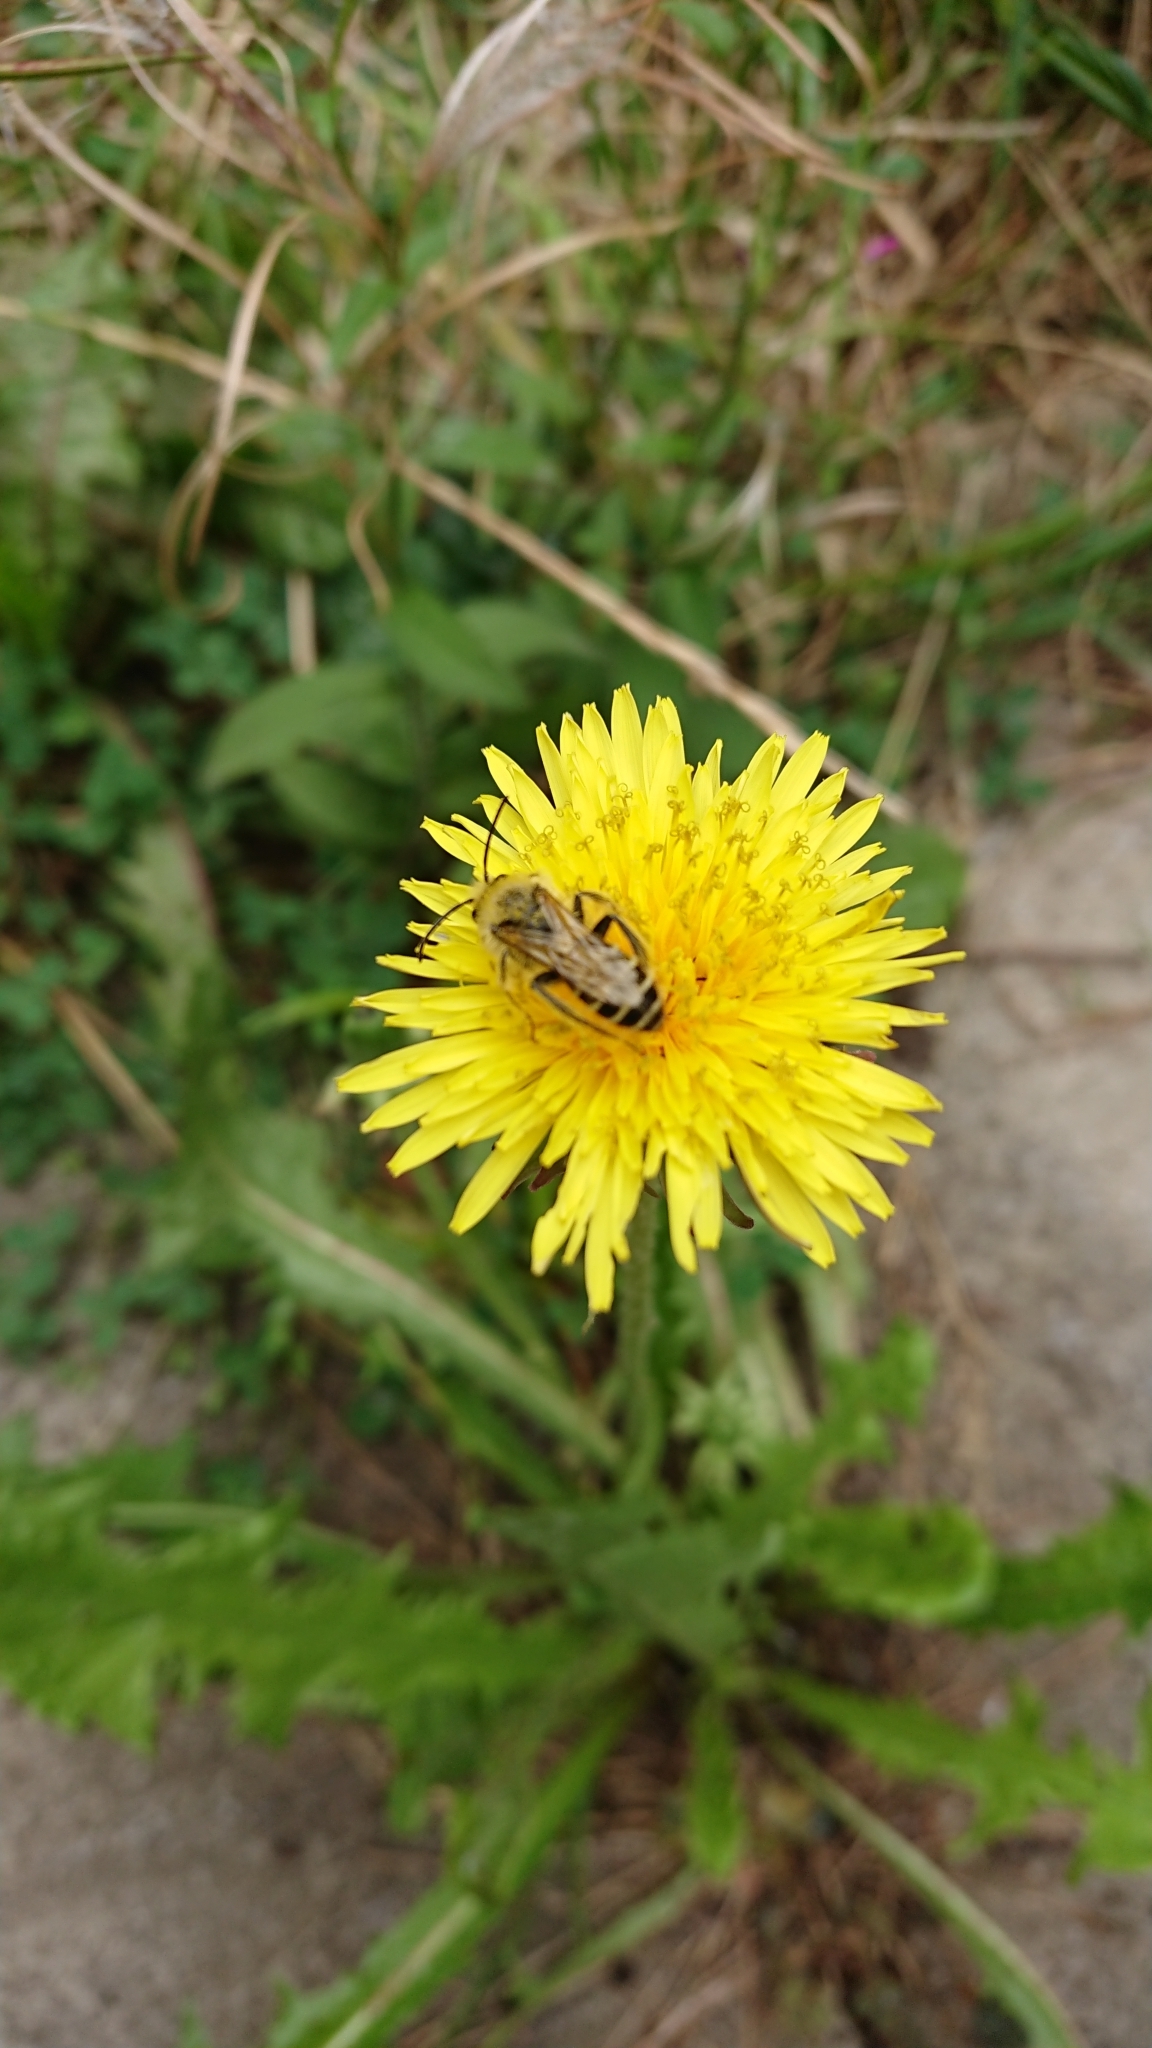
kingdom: Animalia
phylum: Arthropoda
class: Insecta
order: Hymenoptera
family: Melittidae
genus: Dasypoda
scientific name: Dasypoda hirtipes
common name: Pantaloon bee
